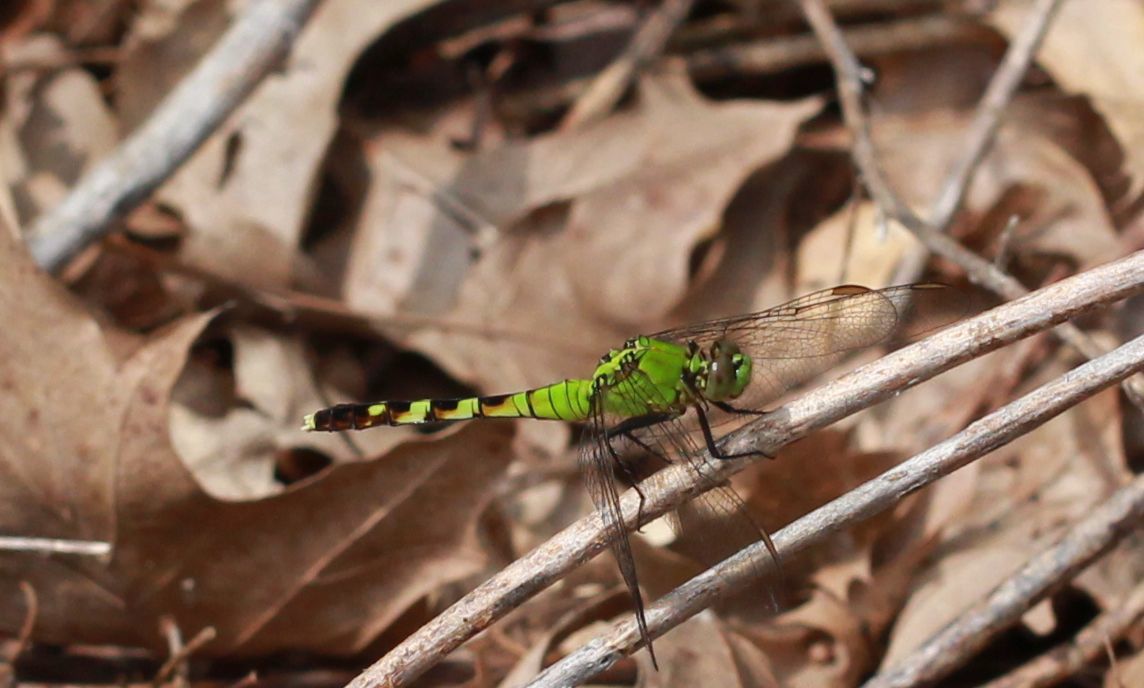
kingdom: Animalia
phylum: Arthropoda
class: Insecta
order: Odonata
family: Libellulidae
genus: Erythemis
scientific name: Erythemis simplicicollis
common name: Eastern pondhawk
